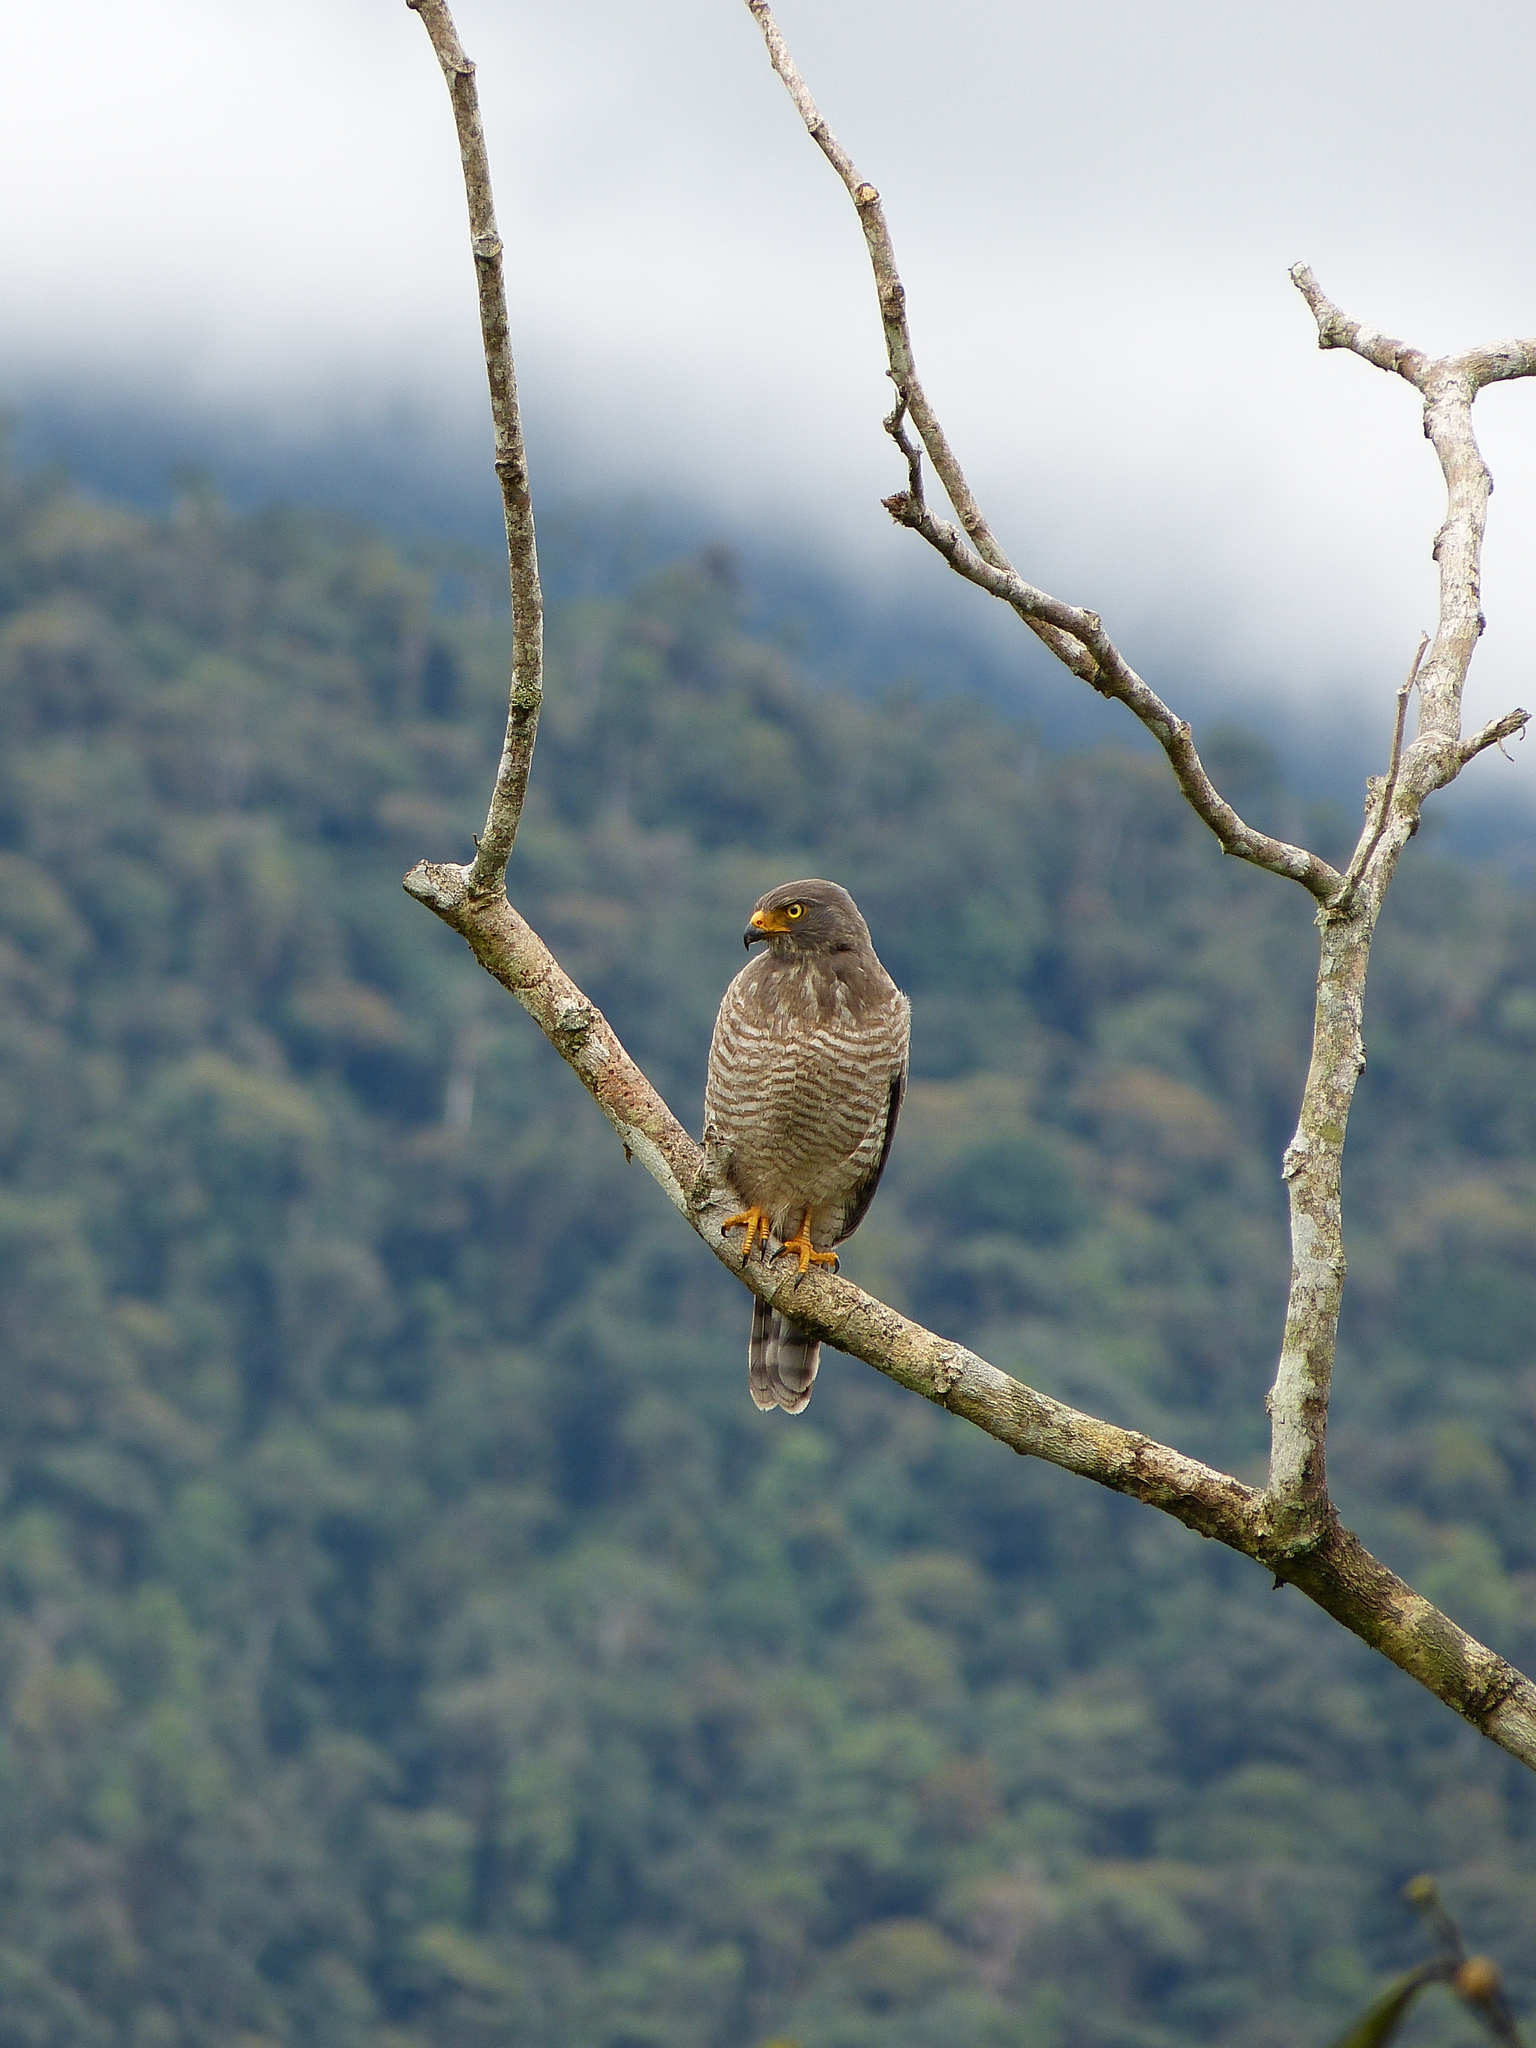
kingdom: Animalia
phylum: Chordata
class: Aves
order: Accipitriformes
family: Accipitridae
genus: Rupornis
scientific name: Rupornis magnirostris
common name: Roadside hawk
